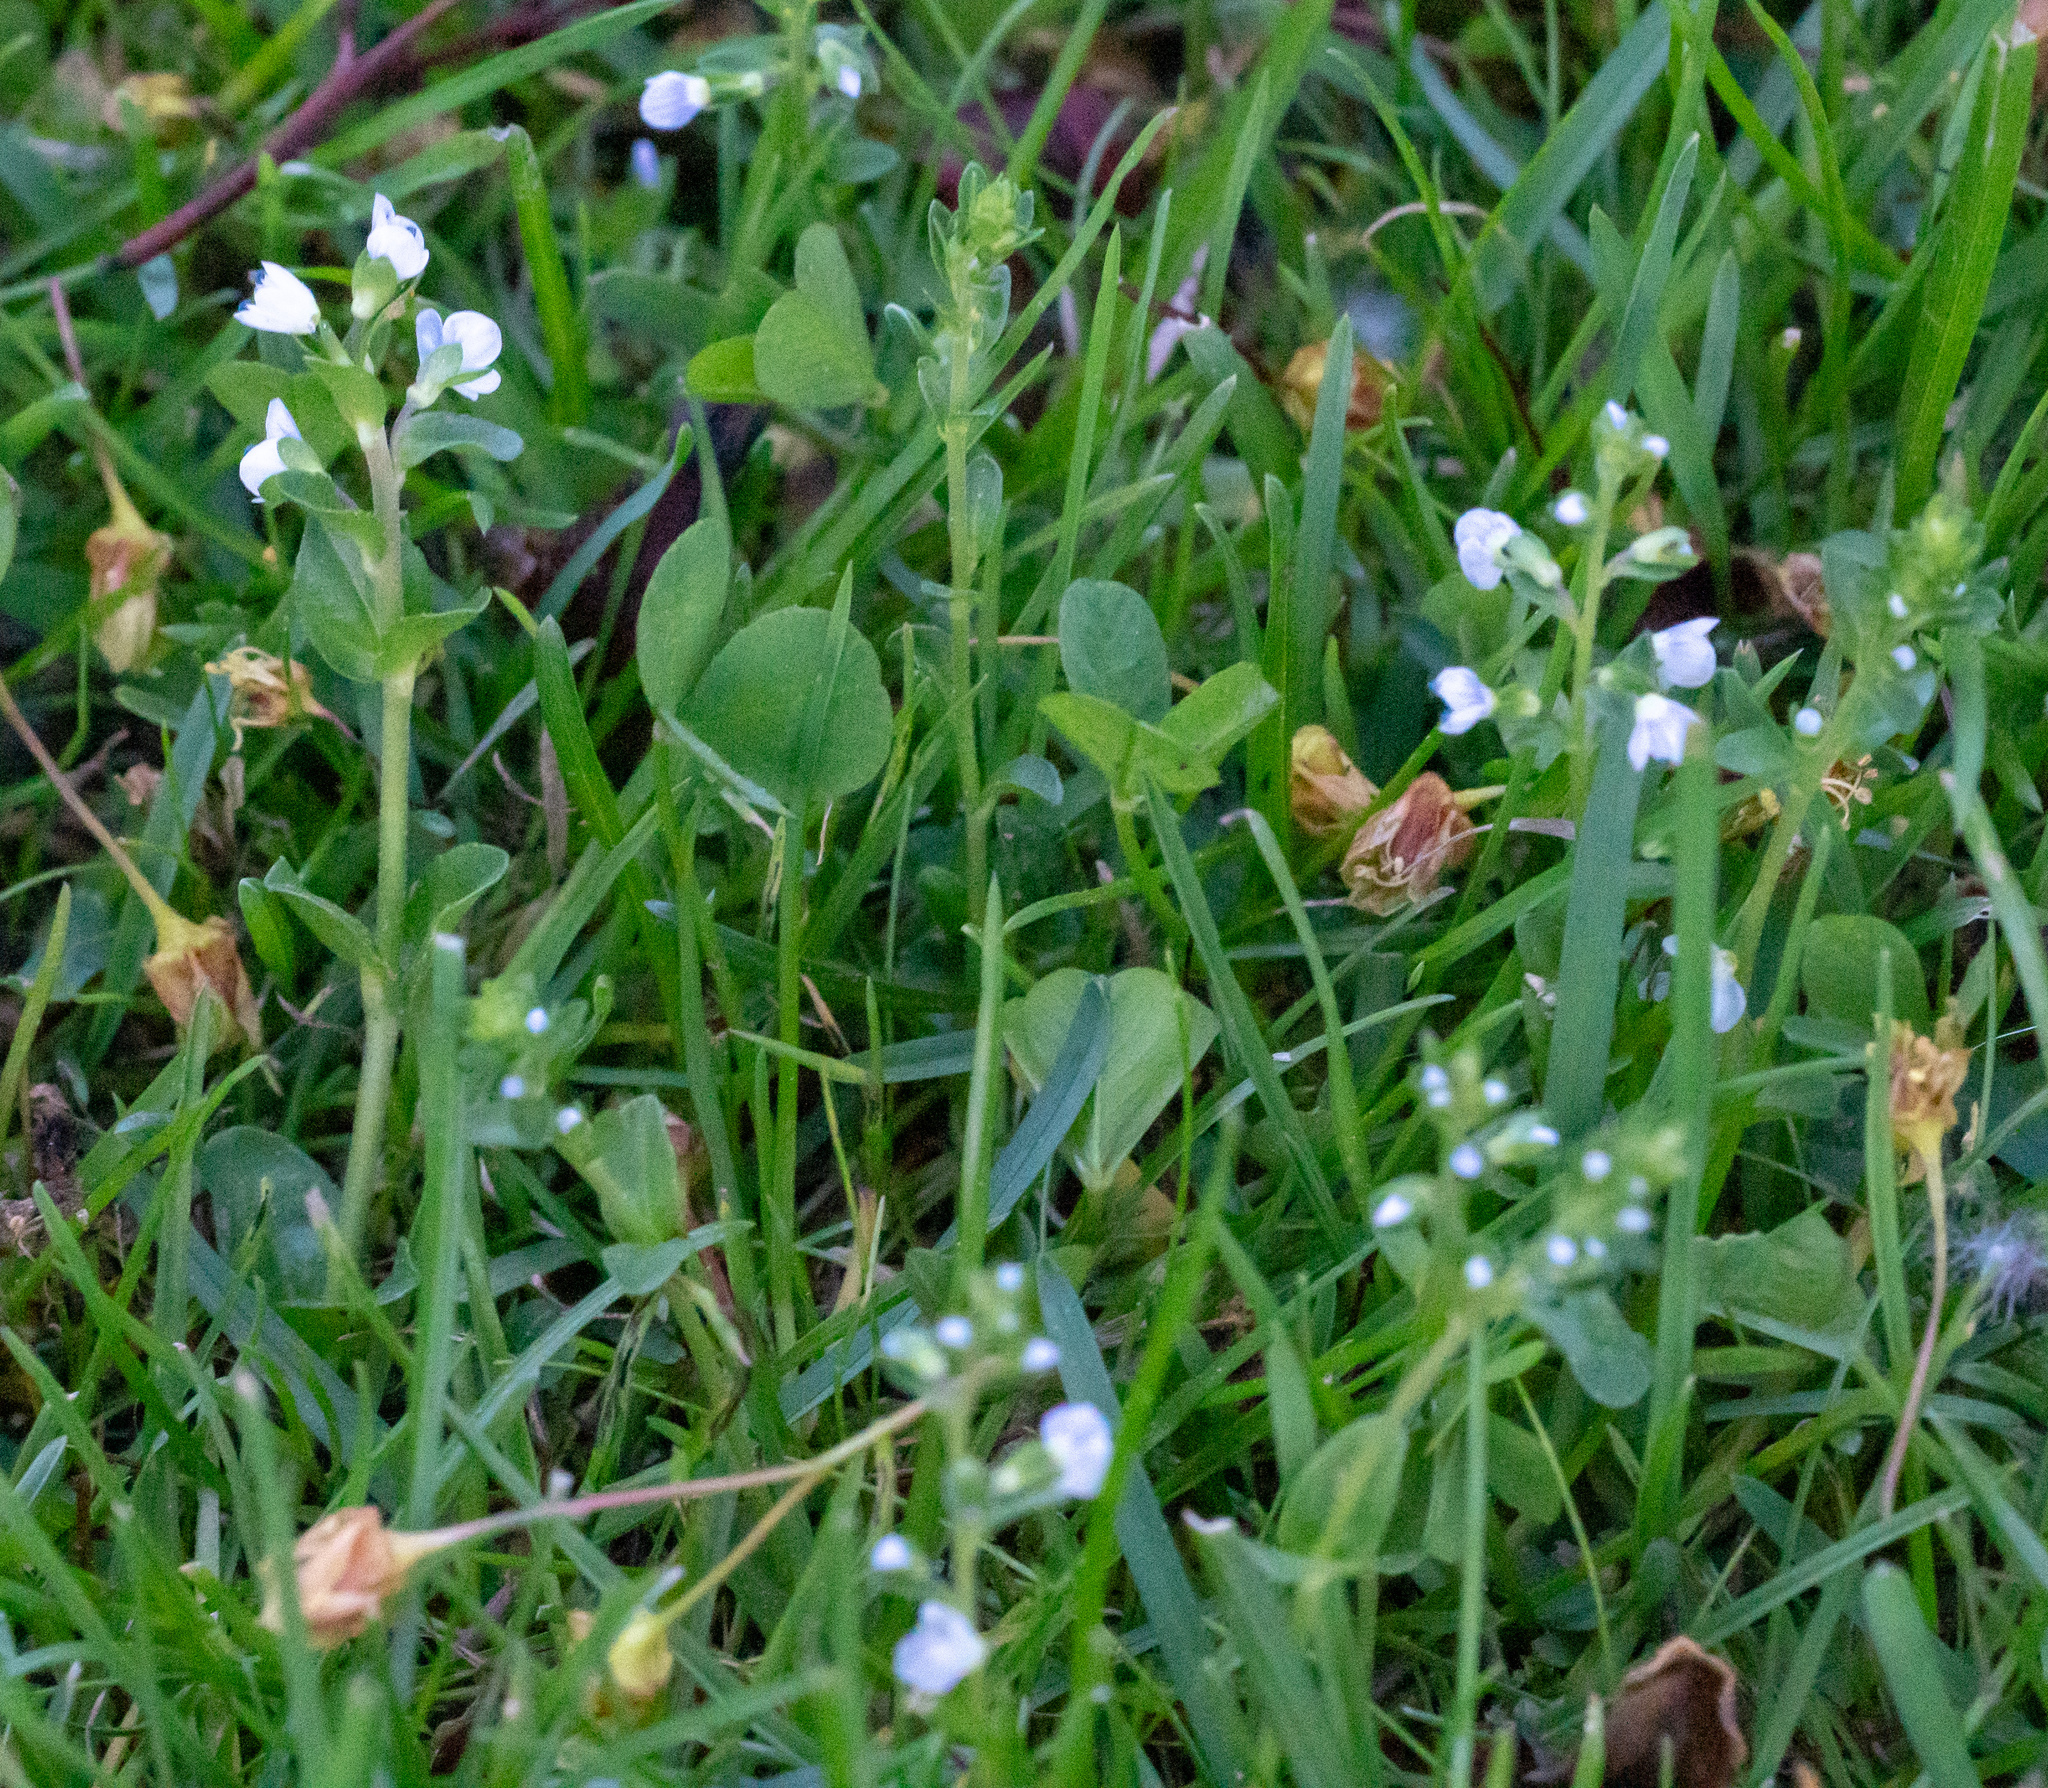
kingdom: Plantae
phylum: Tracheophyta
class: Magnoliopsida
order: Lamiales
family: Plantaginaceae
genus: Veronica
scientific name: Veronica serpyllifolia
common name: Thyme-leaved speedwell
